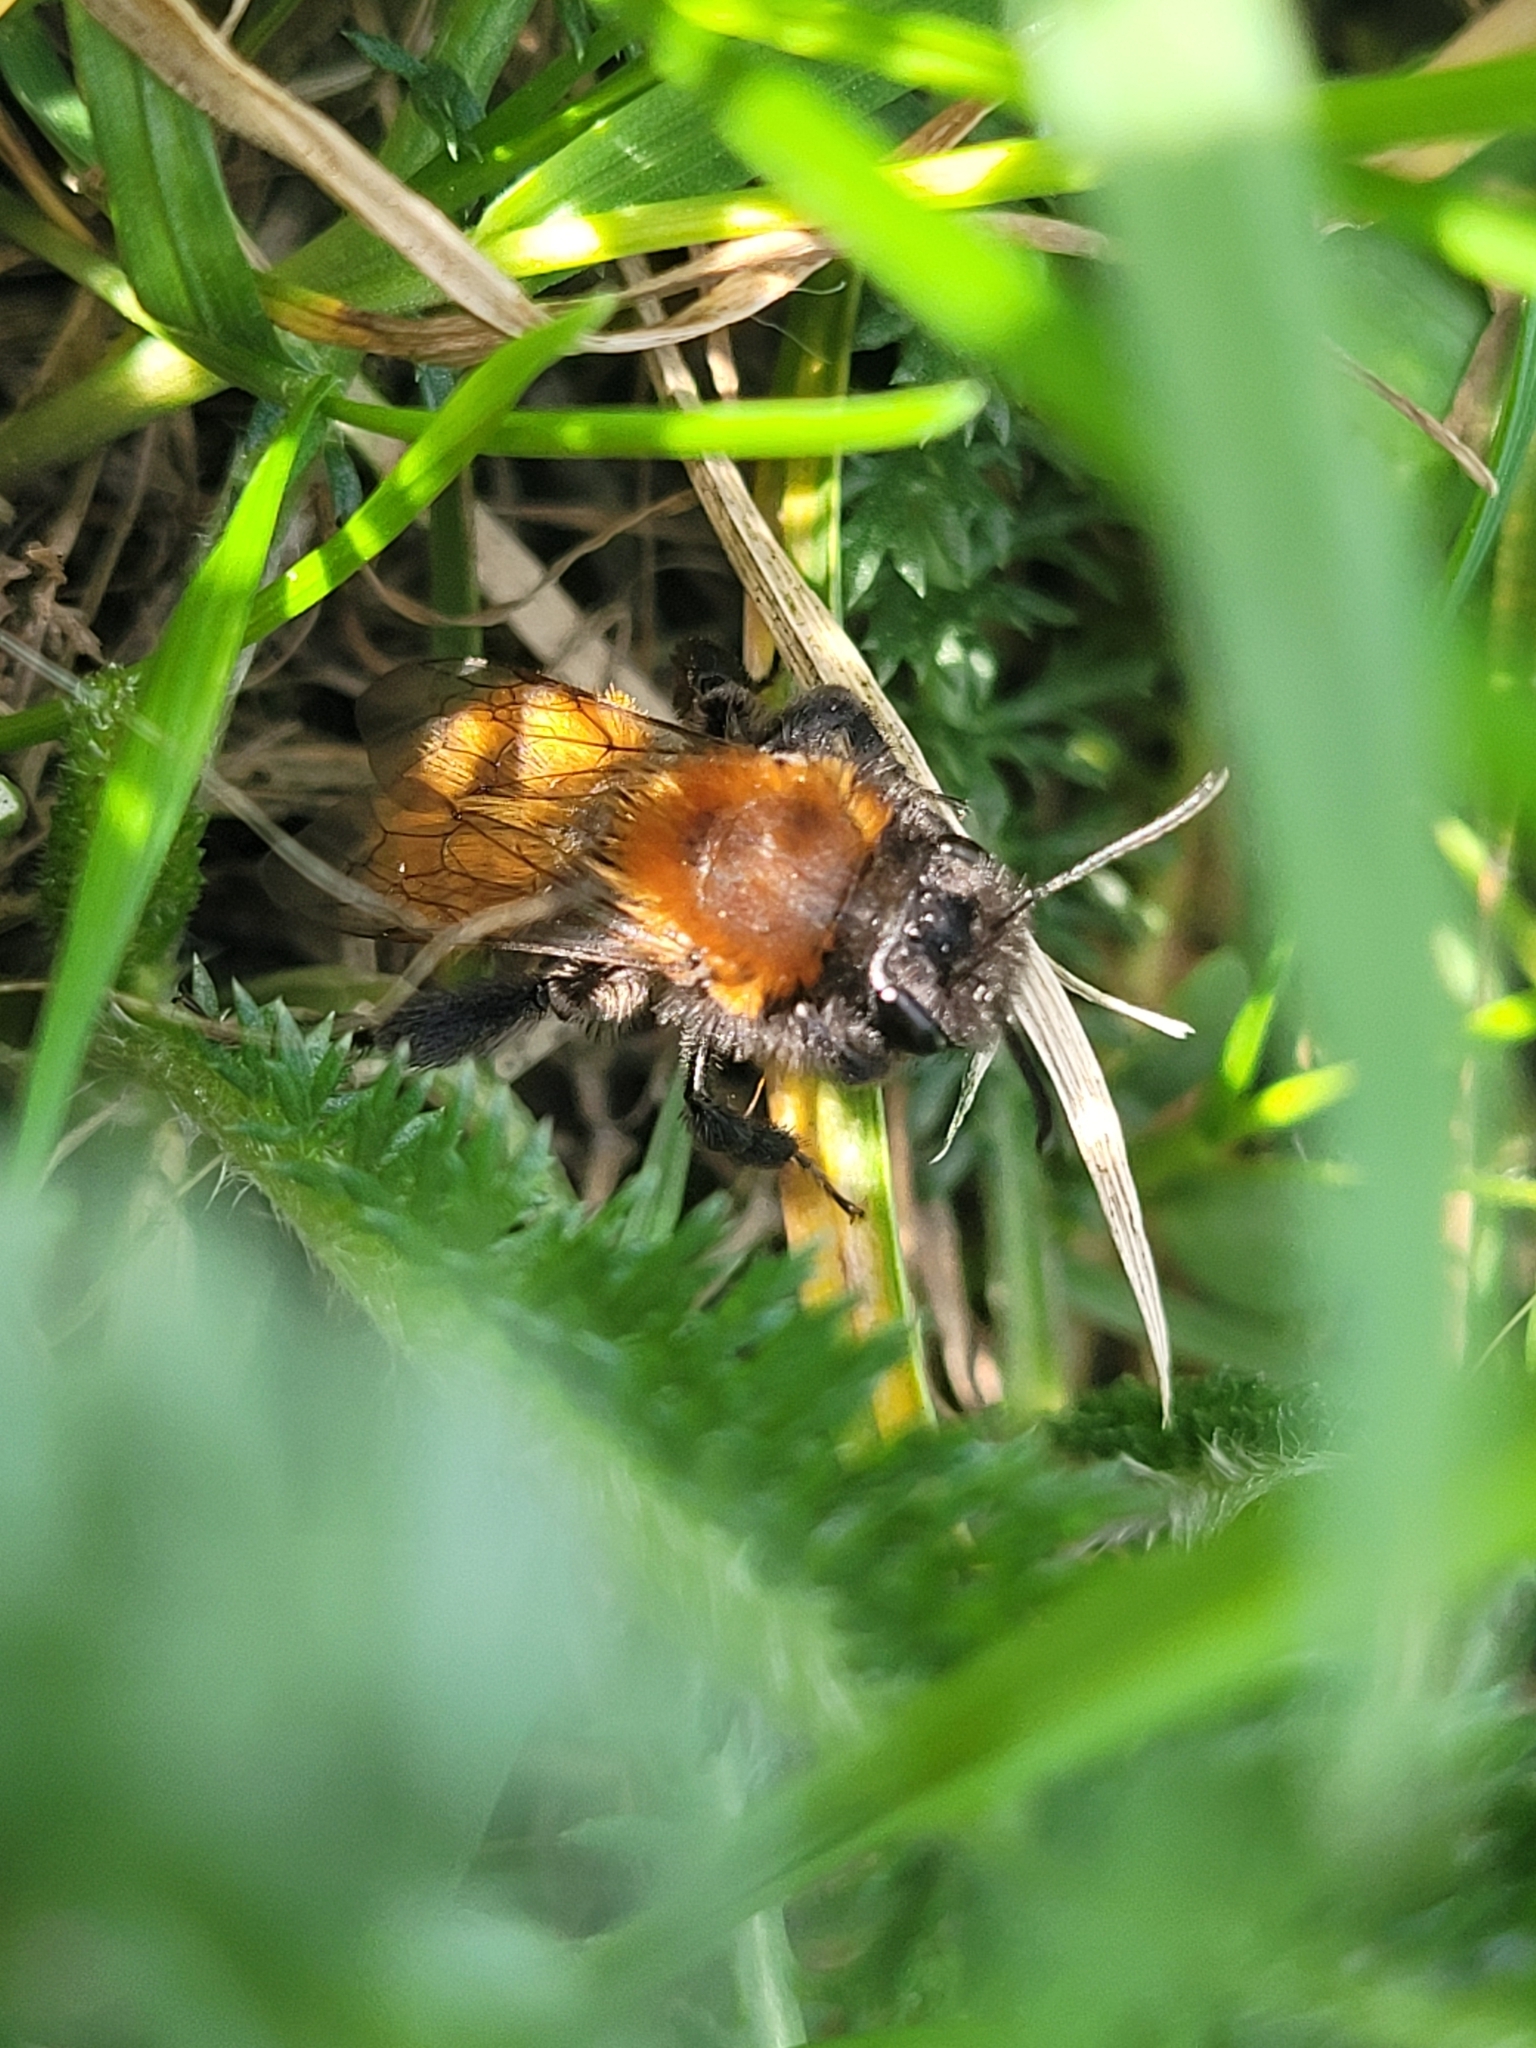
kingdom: Animalia
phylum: Arthropoda
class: Insecta
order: Hymenoptera
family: Andrenidae
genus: Andrena
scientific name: Andrena fulva
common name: Tawny mining bee
